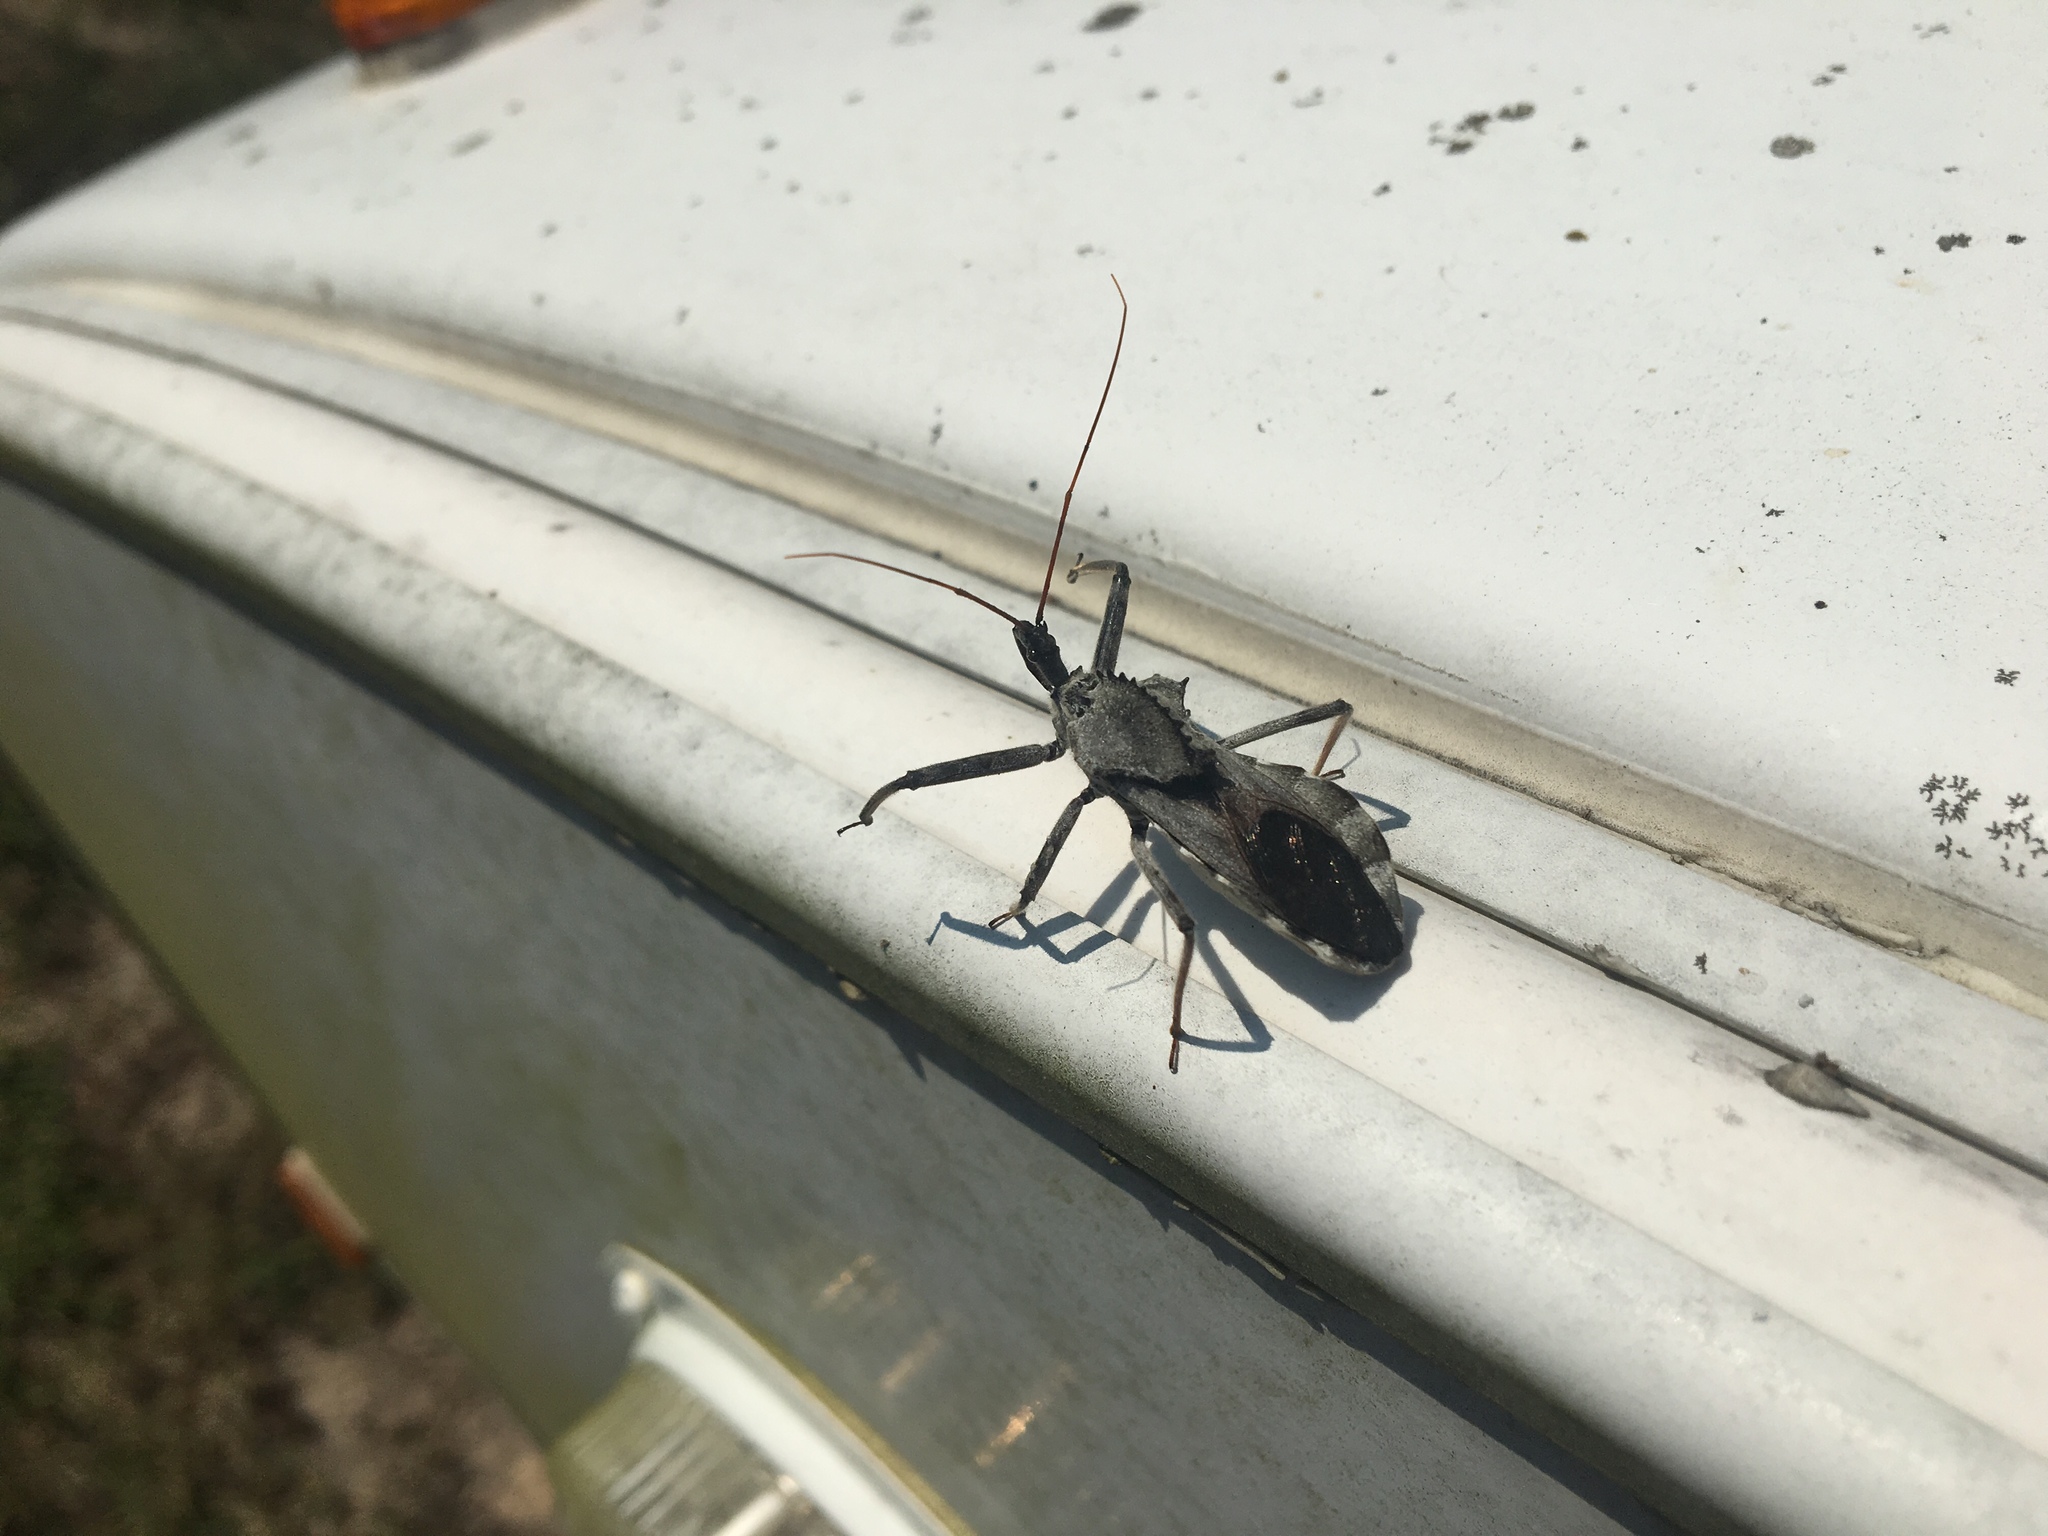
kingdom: Animalia
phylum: Arthropoda
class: Insecta
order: Hemiptera
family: Reduviidae
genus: Arilus
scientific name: Arilus cristatus
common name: North american wheel bug
